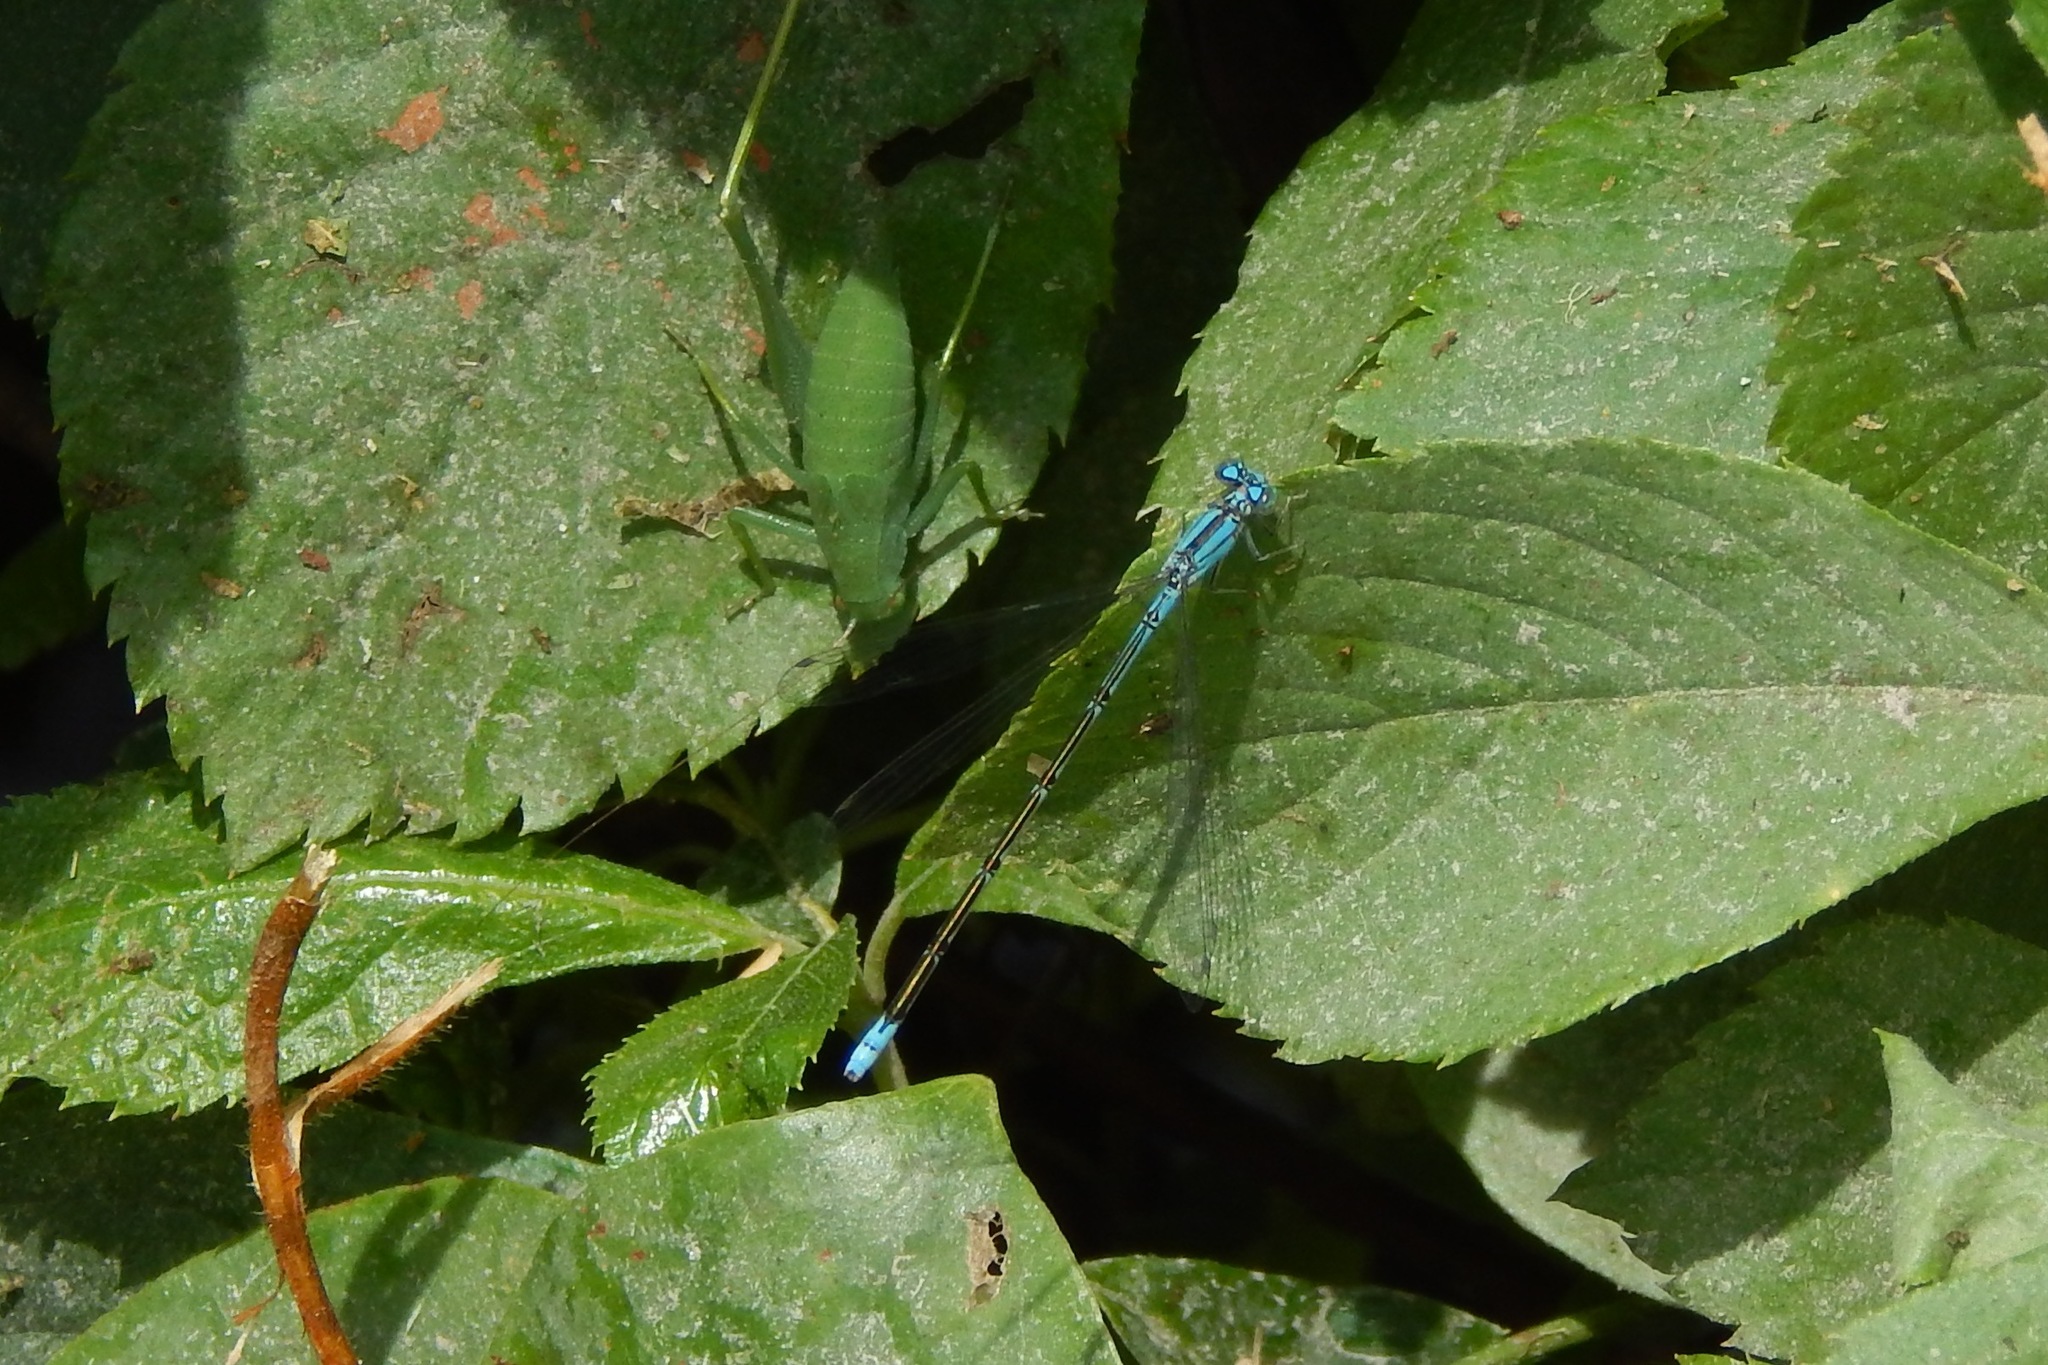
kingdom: Animalia
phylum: Arthropoda
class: Insecta
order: Odonata
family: Coenagrionidae
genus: Enallagma
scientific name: Enallagma traviatum
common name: Slender bluet
